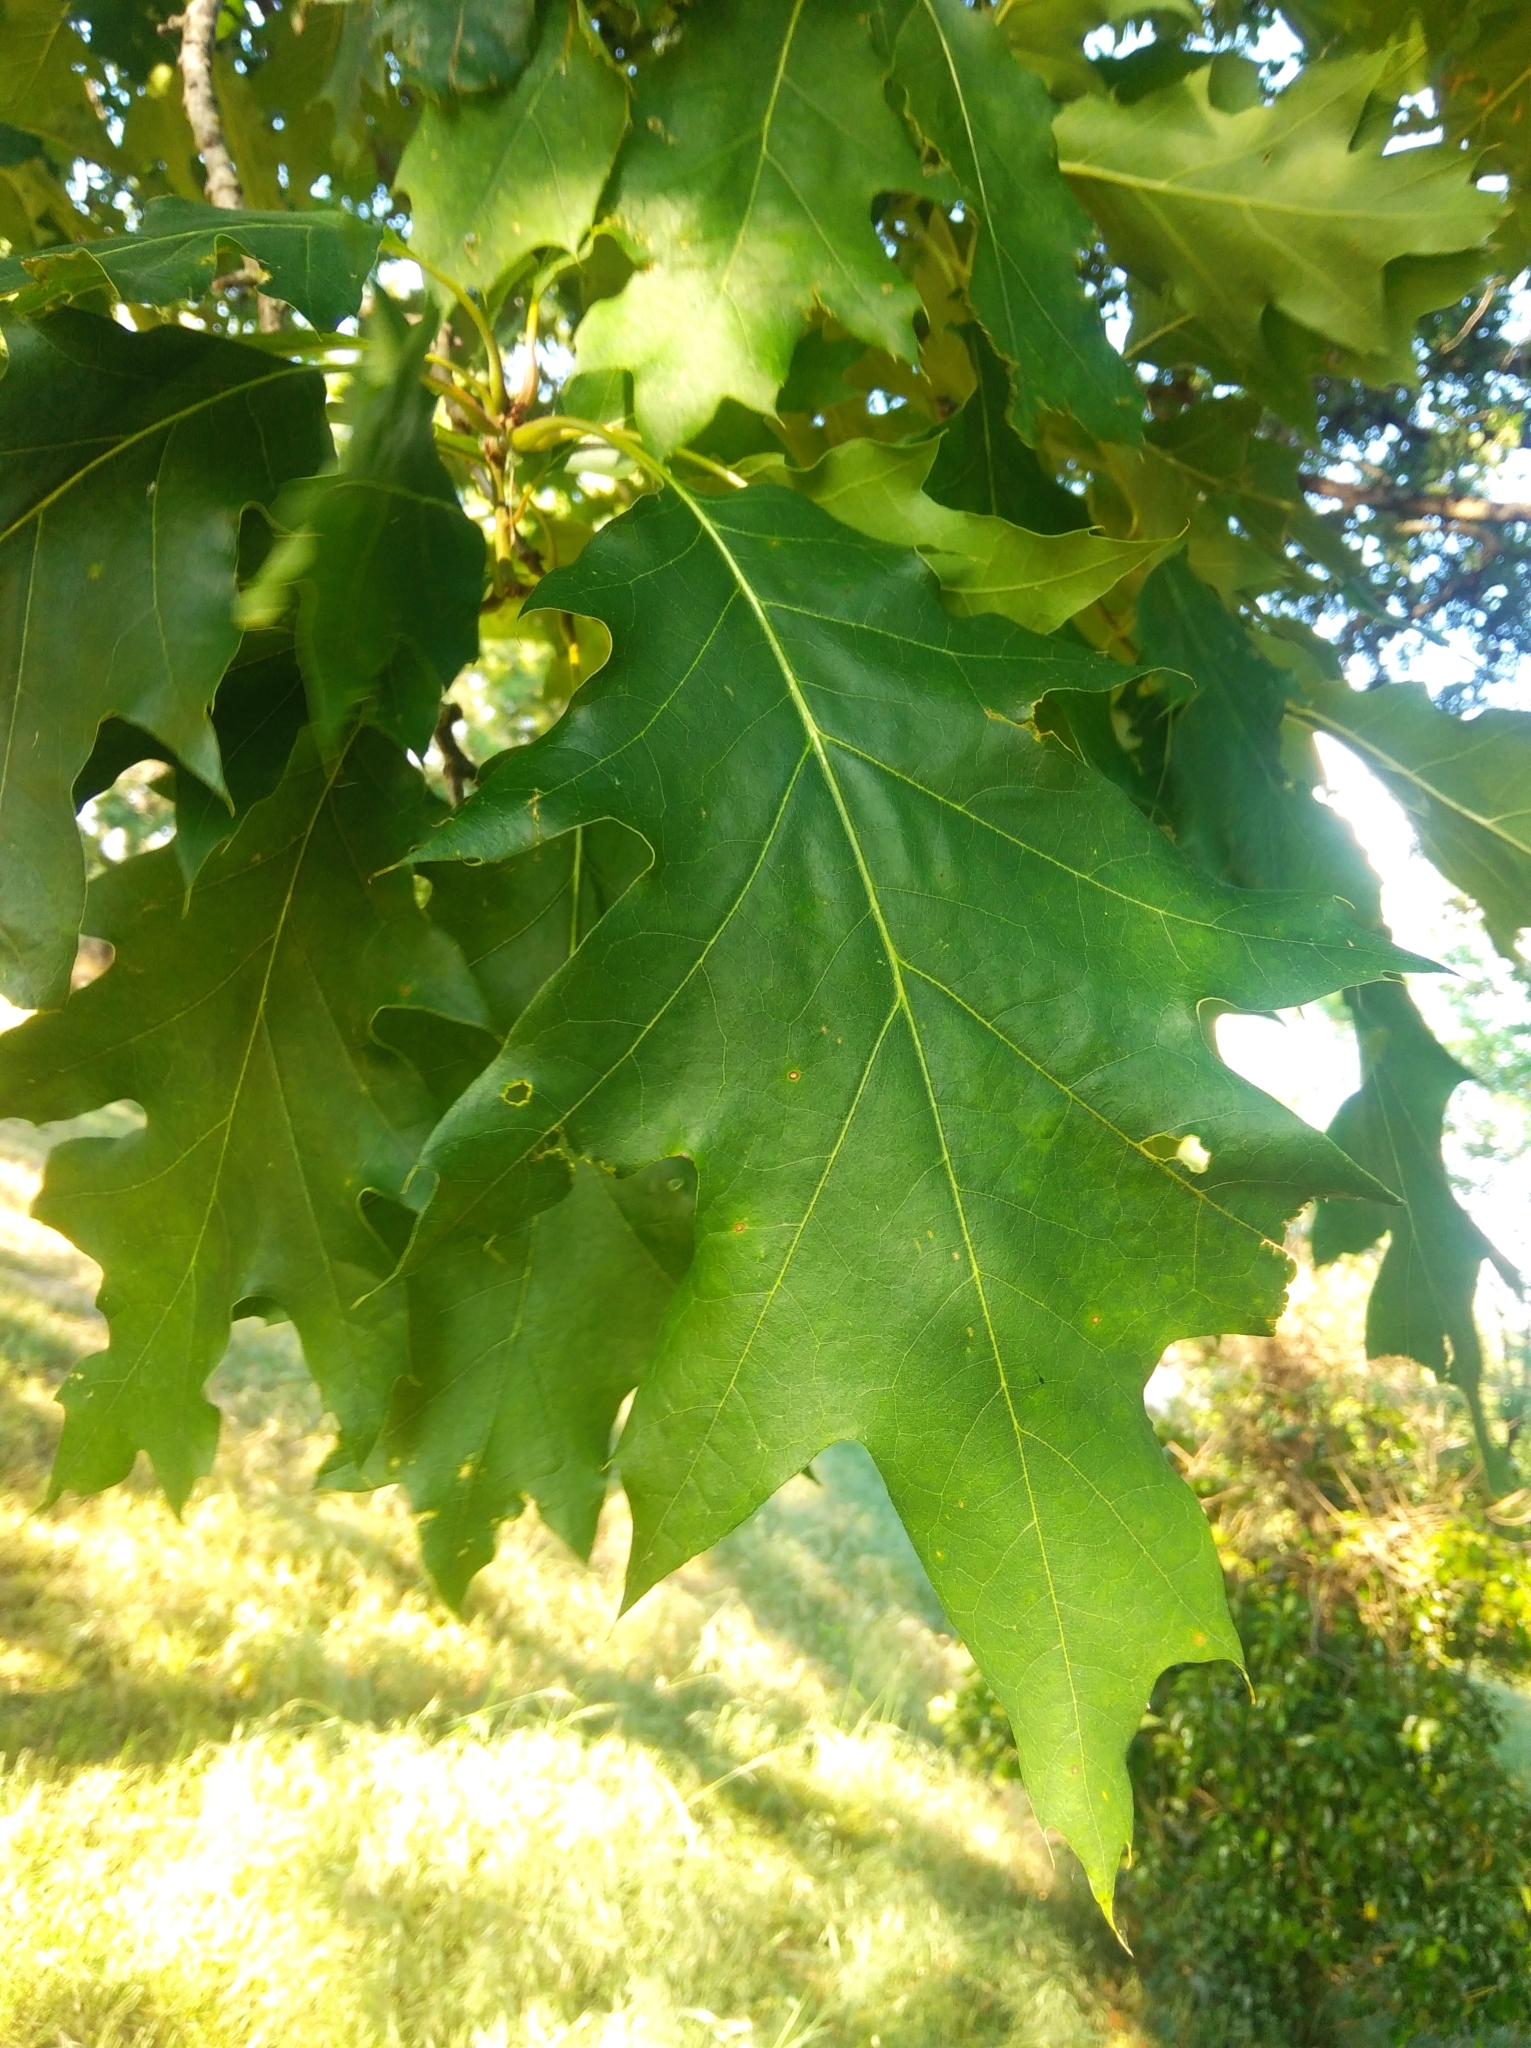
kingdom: Plantae
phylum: Tracheophyta
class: Magnoliopsida
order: Fagales
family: Fagaceae
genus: Quercus
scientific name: Quercus rubra
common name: Red oak
